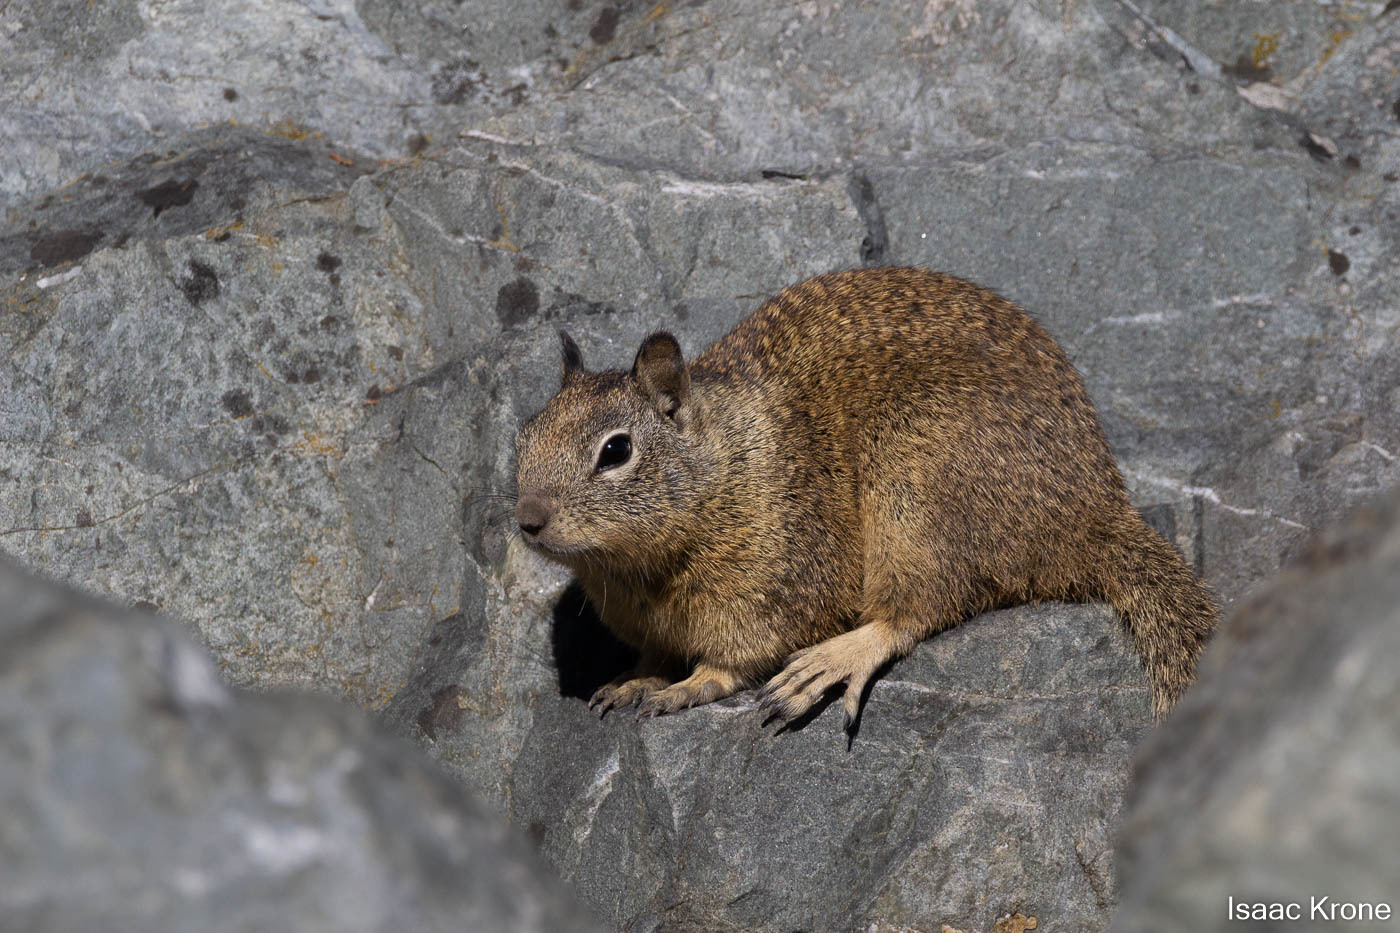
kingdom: Animalia
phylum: Chordata
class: Mammalia
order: Rodentia
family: Sciuridae
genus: Otospermophilus
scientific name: Otospermophilus beecheyi
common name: California ground squirrel
